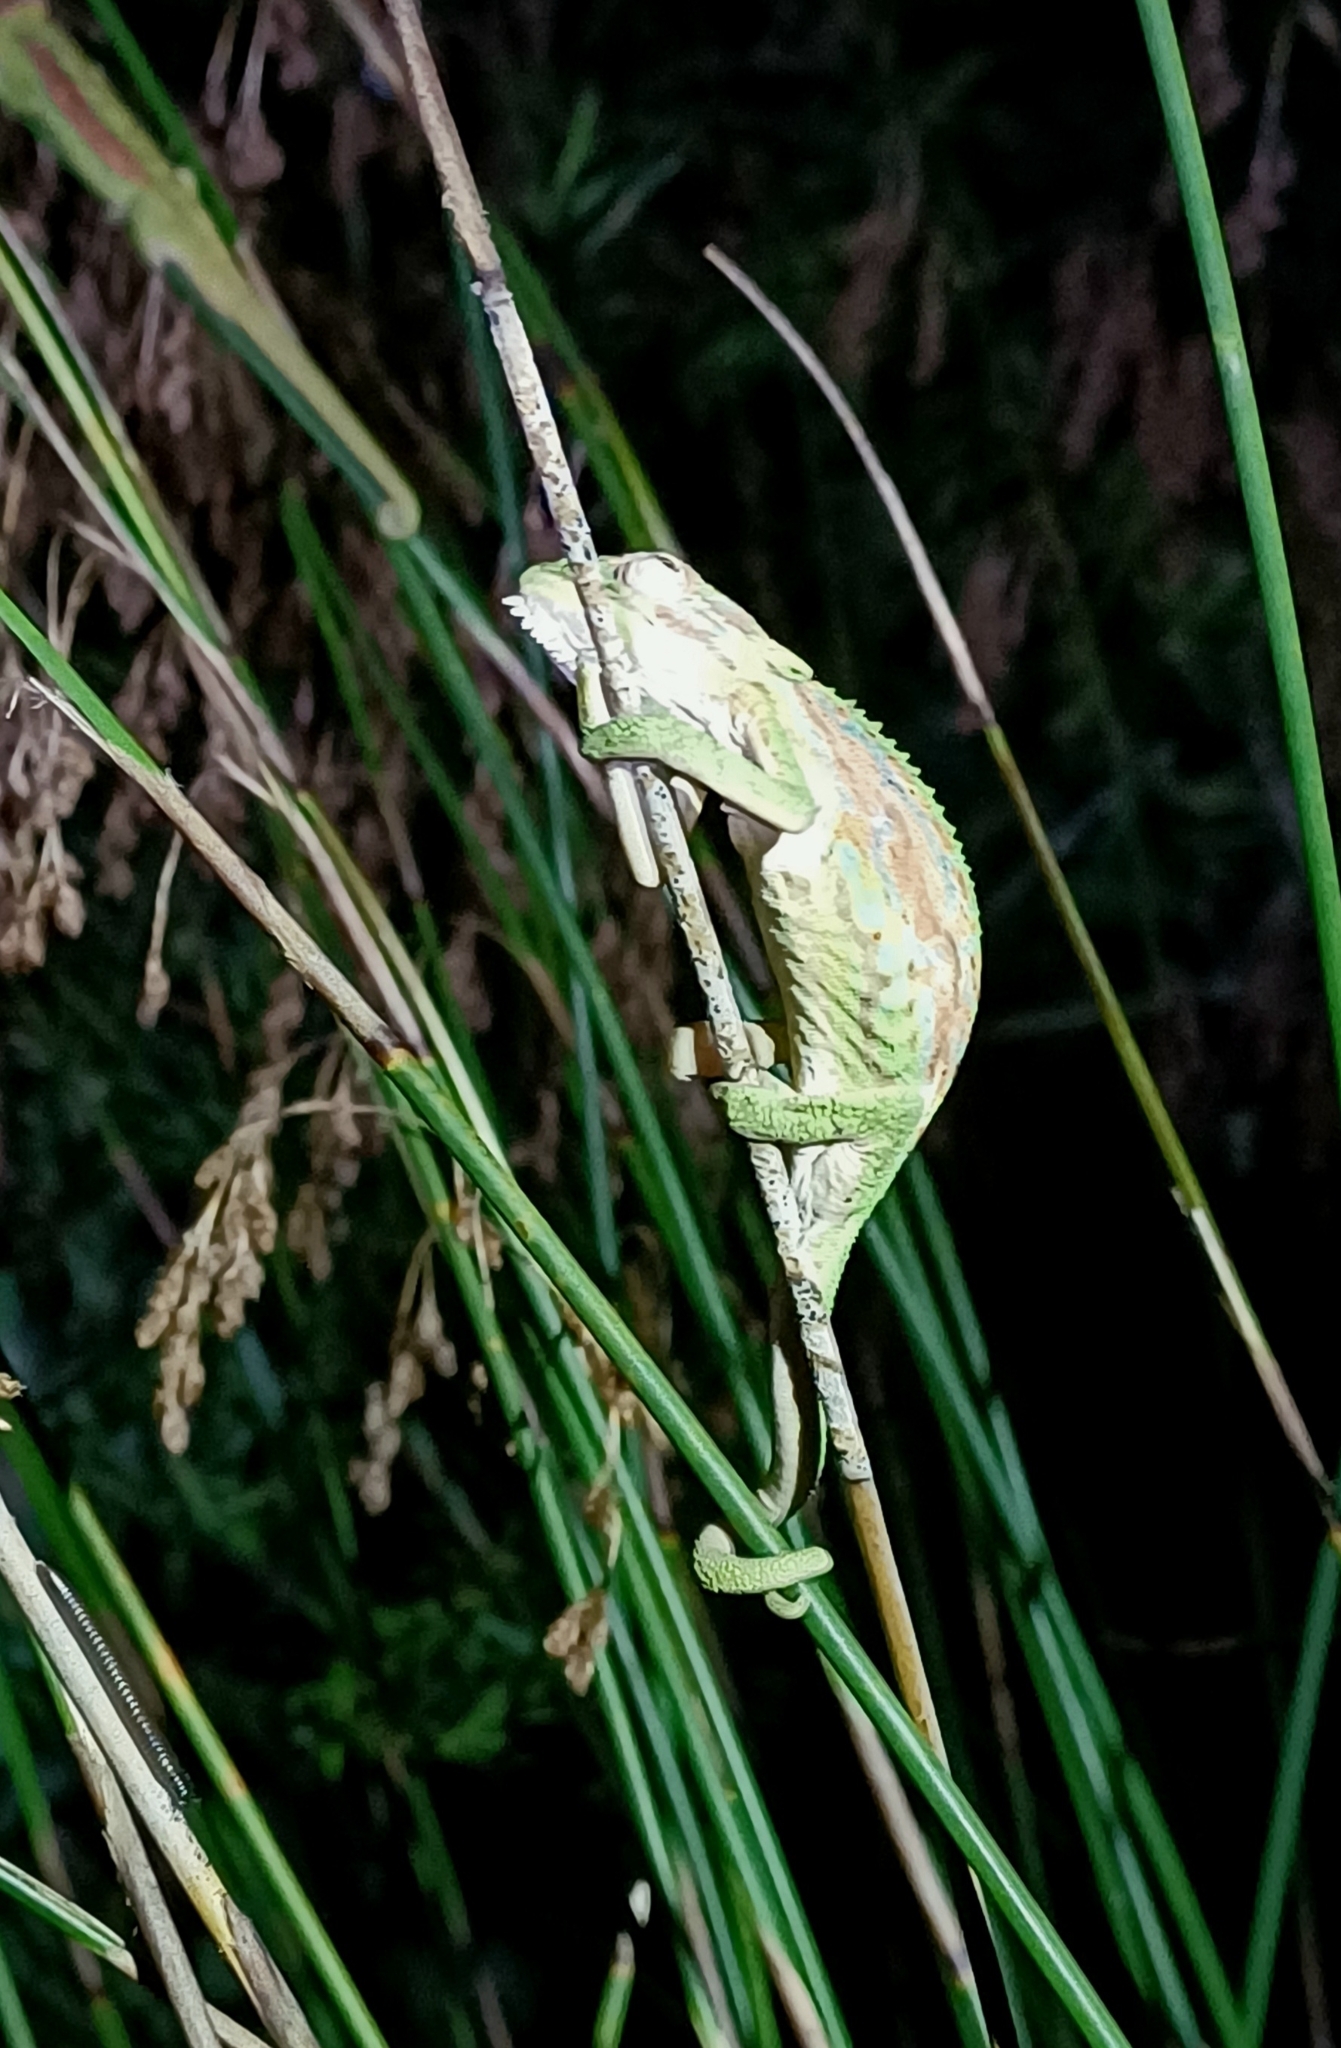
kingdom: Animalia
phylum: Chordata
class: Squamata
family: Chamaeleonidae
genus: Bradypodion
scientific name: Bradypodion pumilum
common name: Cape dwarf chameleon
